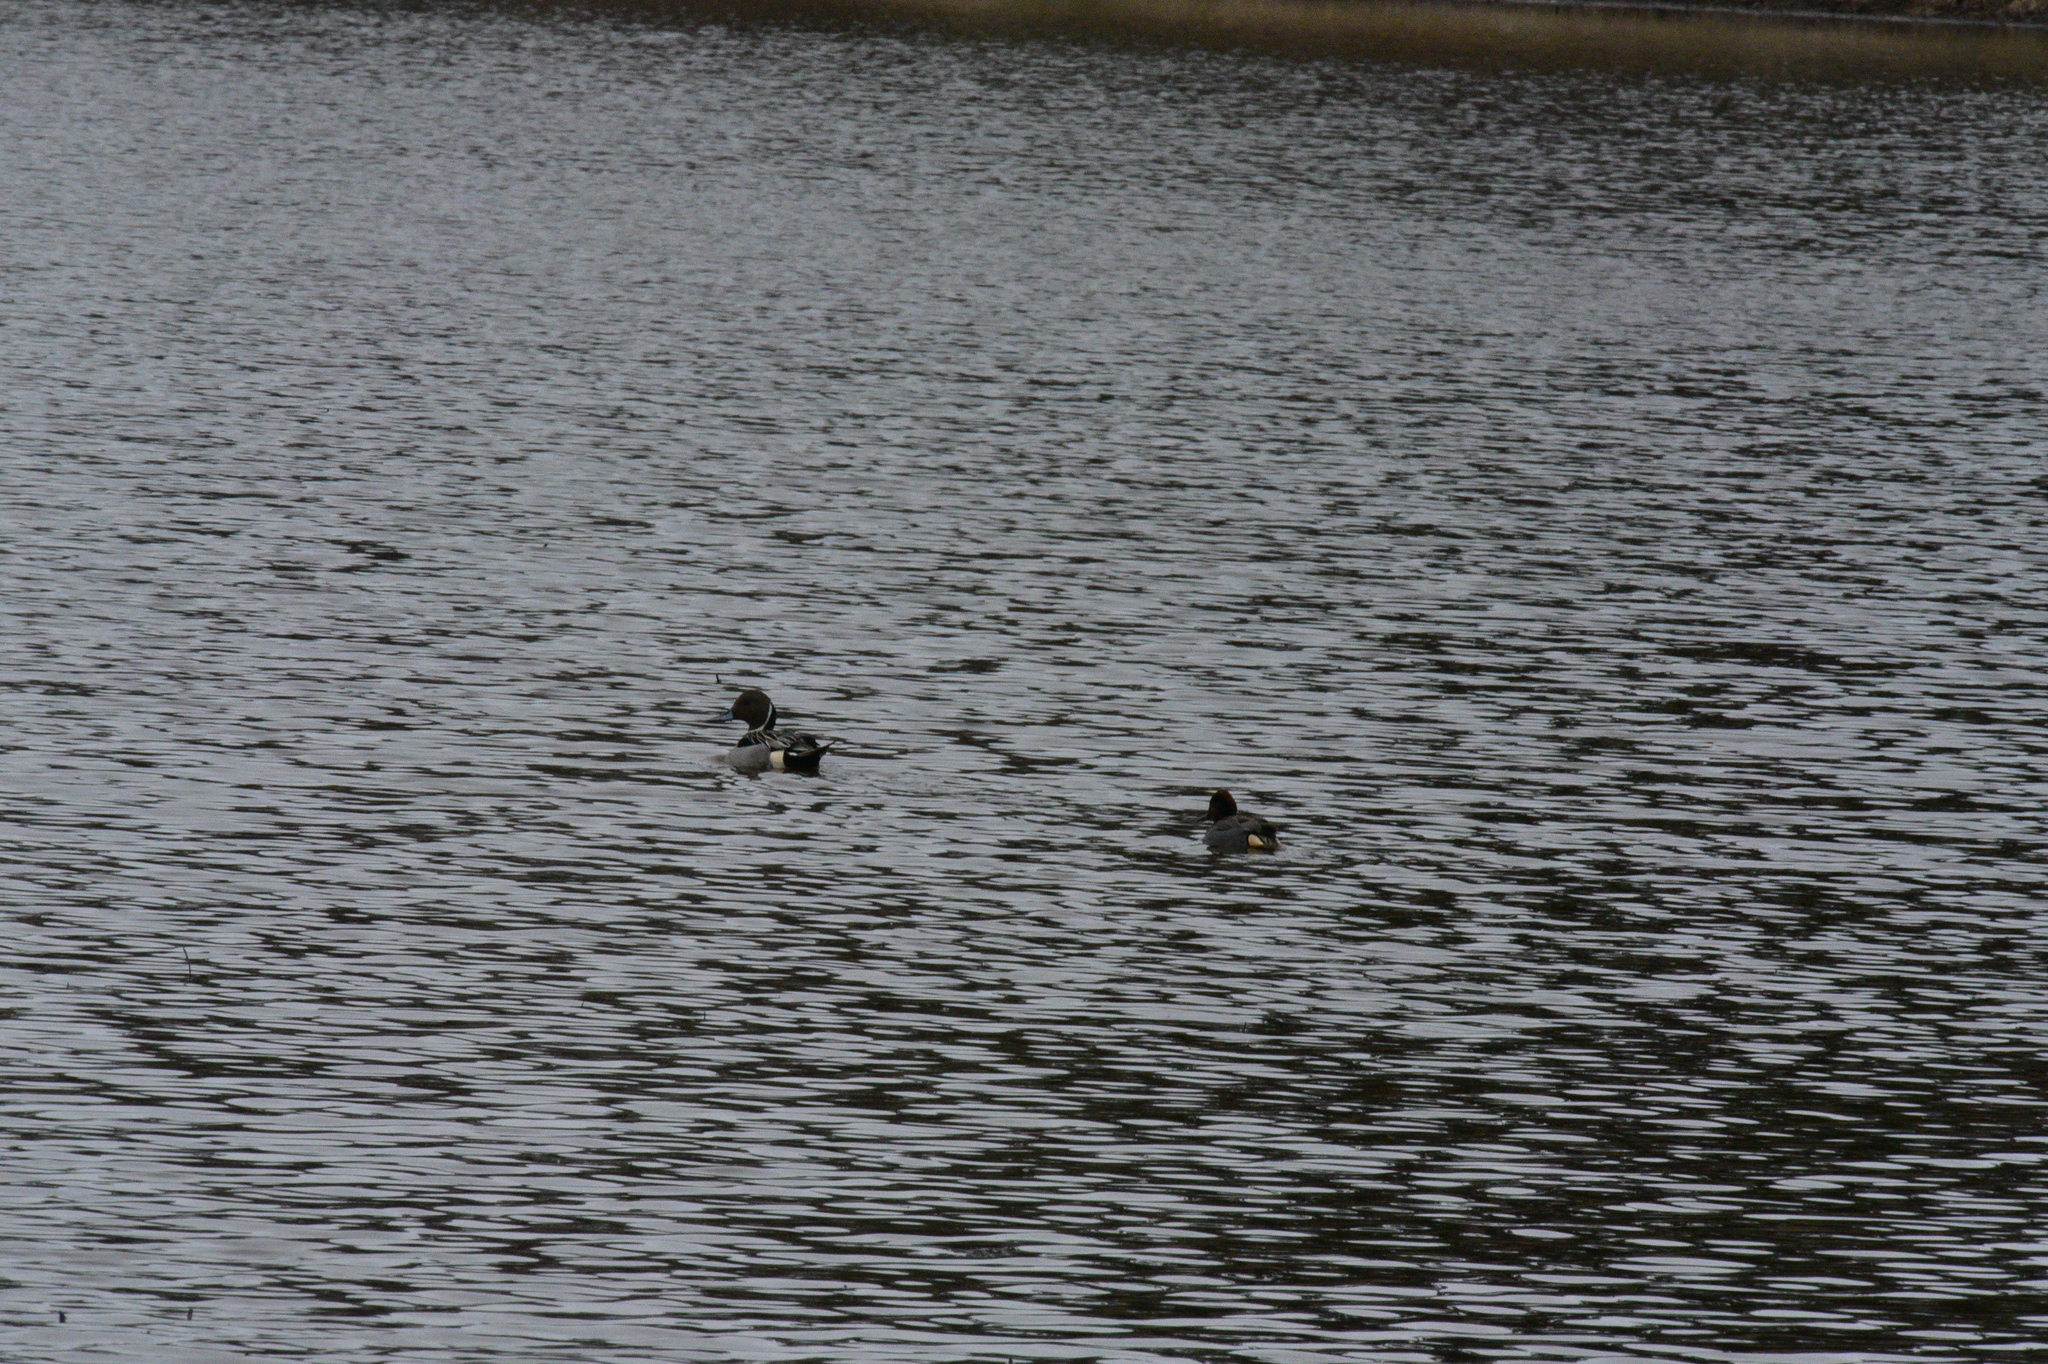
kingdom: Animalia
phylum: Chordata
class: Aves
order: Anseriformes
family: Anatidae
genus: Anas
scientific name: Anas acuta
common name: Northern pintail
